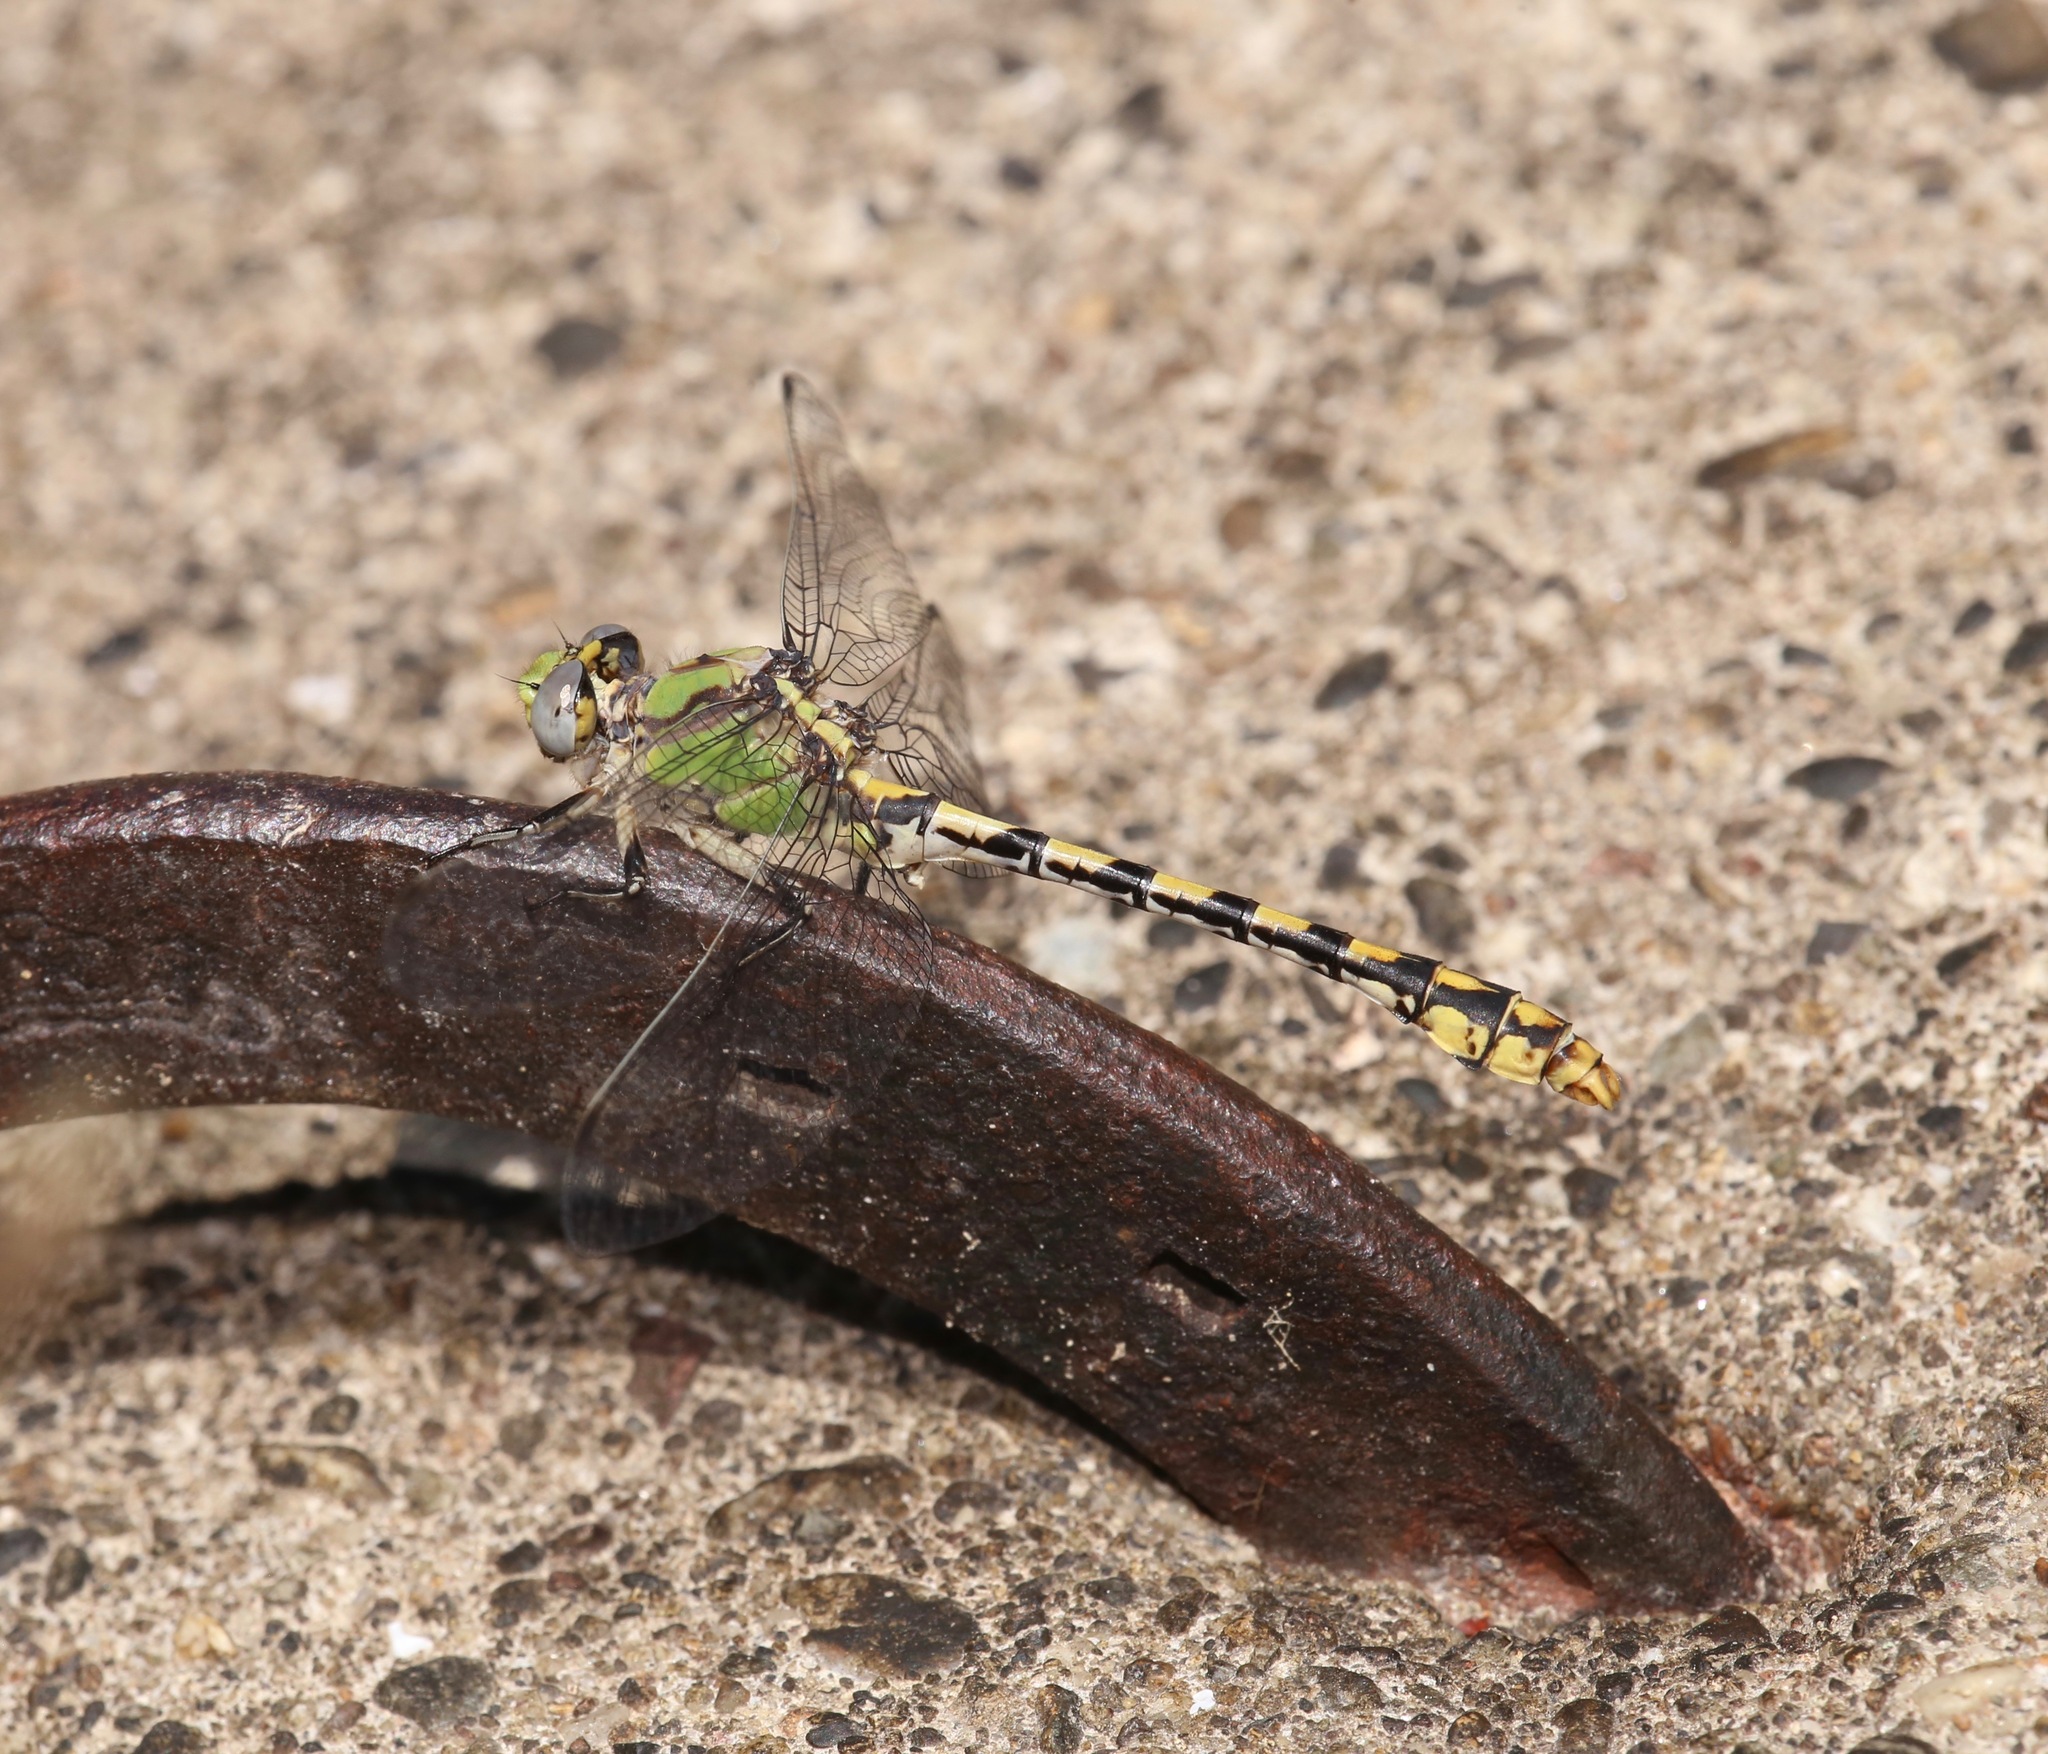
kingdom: Animalia
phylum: Arthropoda
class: Insecta
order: Odonata
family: Gomphidae
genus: Ophiogomphus
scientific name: Ophiogomphus occidentis
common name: Sinuous snaketail
